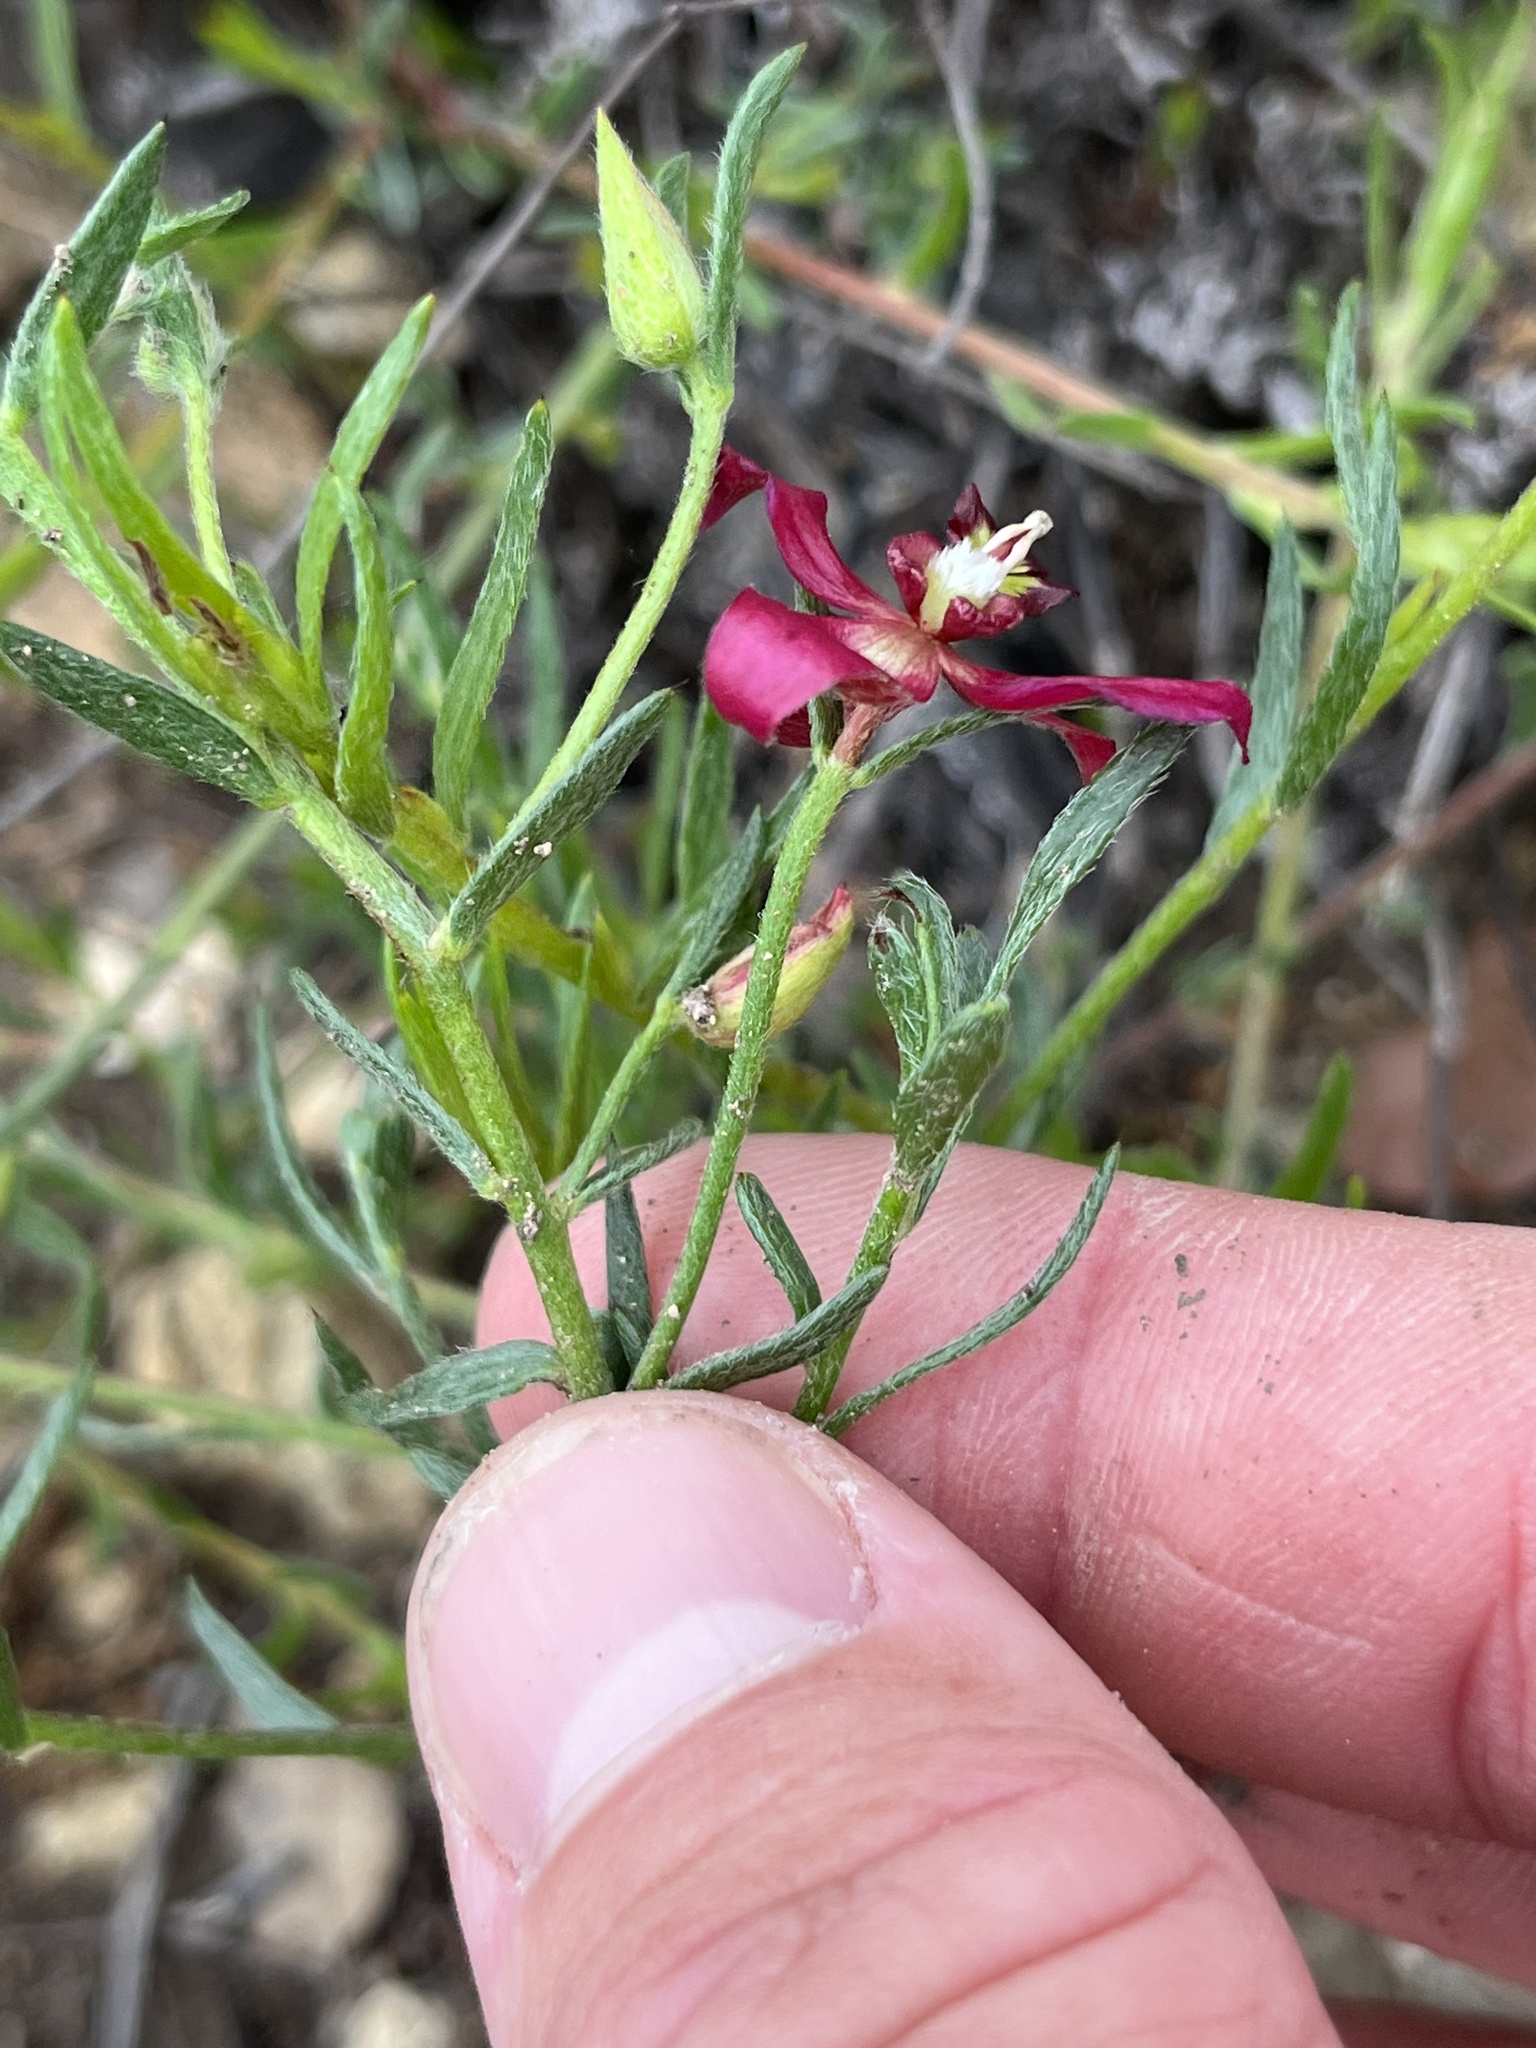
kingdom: Plantae
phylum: Tracheophyta
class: Magnoliopsida
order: Zygophyllales
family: Krameriaceae
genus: Krameria
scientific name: Krameria lanceolata
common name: Ratany
